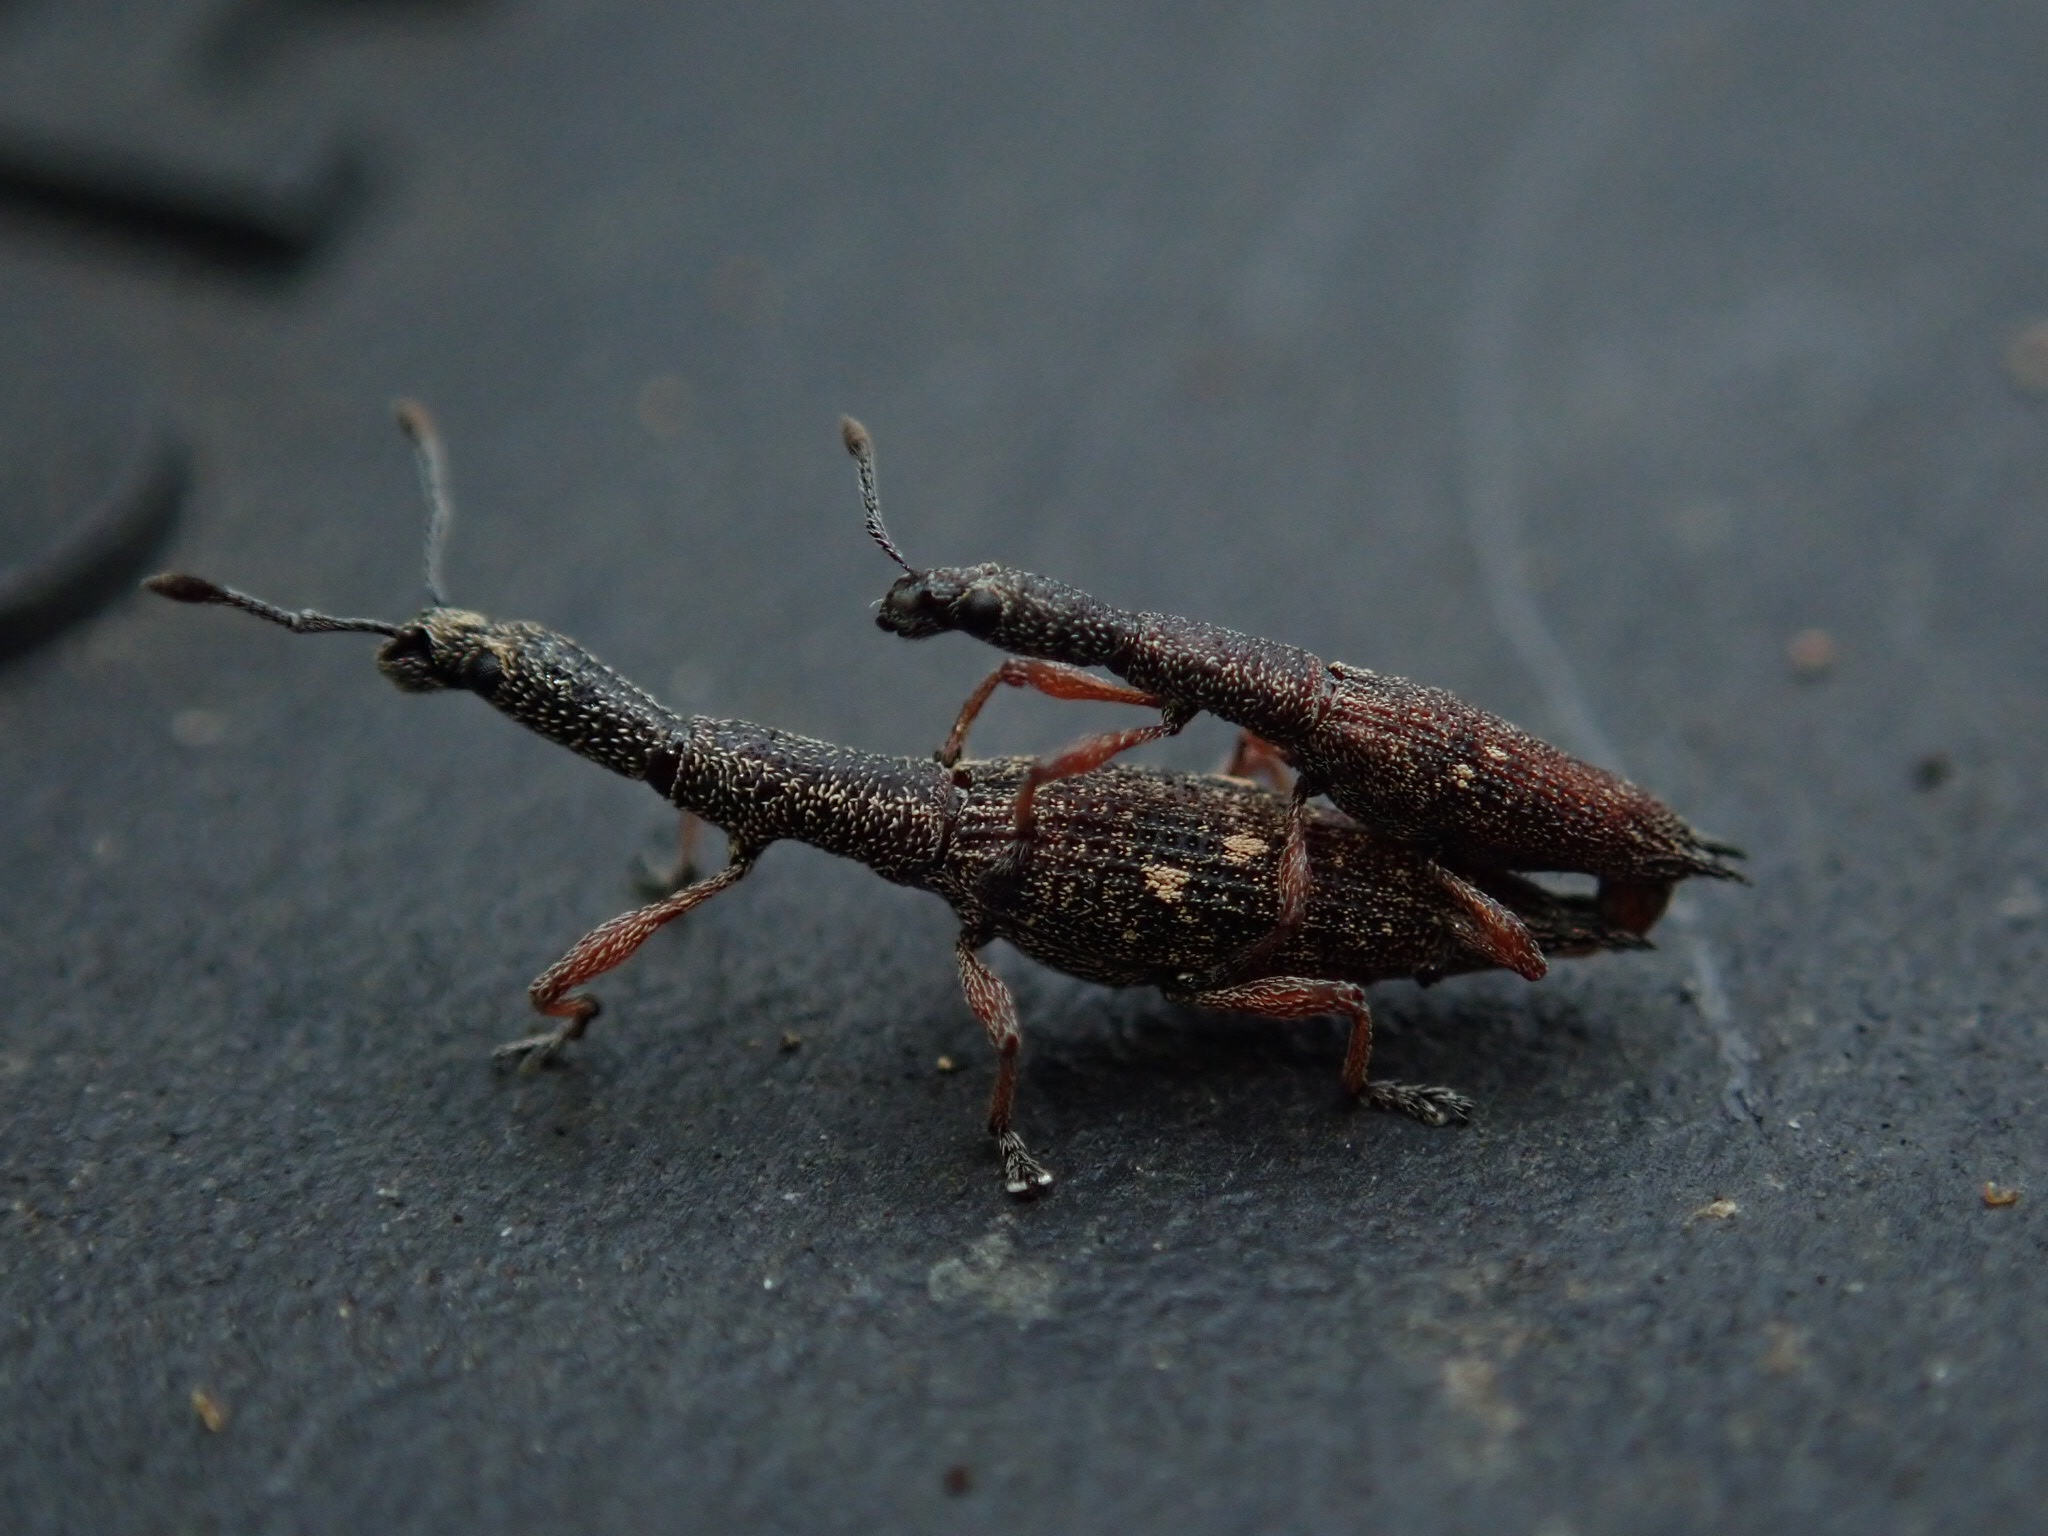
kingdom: Animalia
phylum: Arthropoda
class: Insecta
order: Coleoptera
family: Curculionidae
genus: Rhadinosomus
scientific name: Rhadinosomus acuminatus
